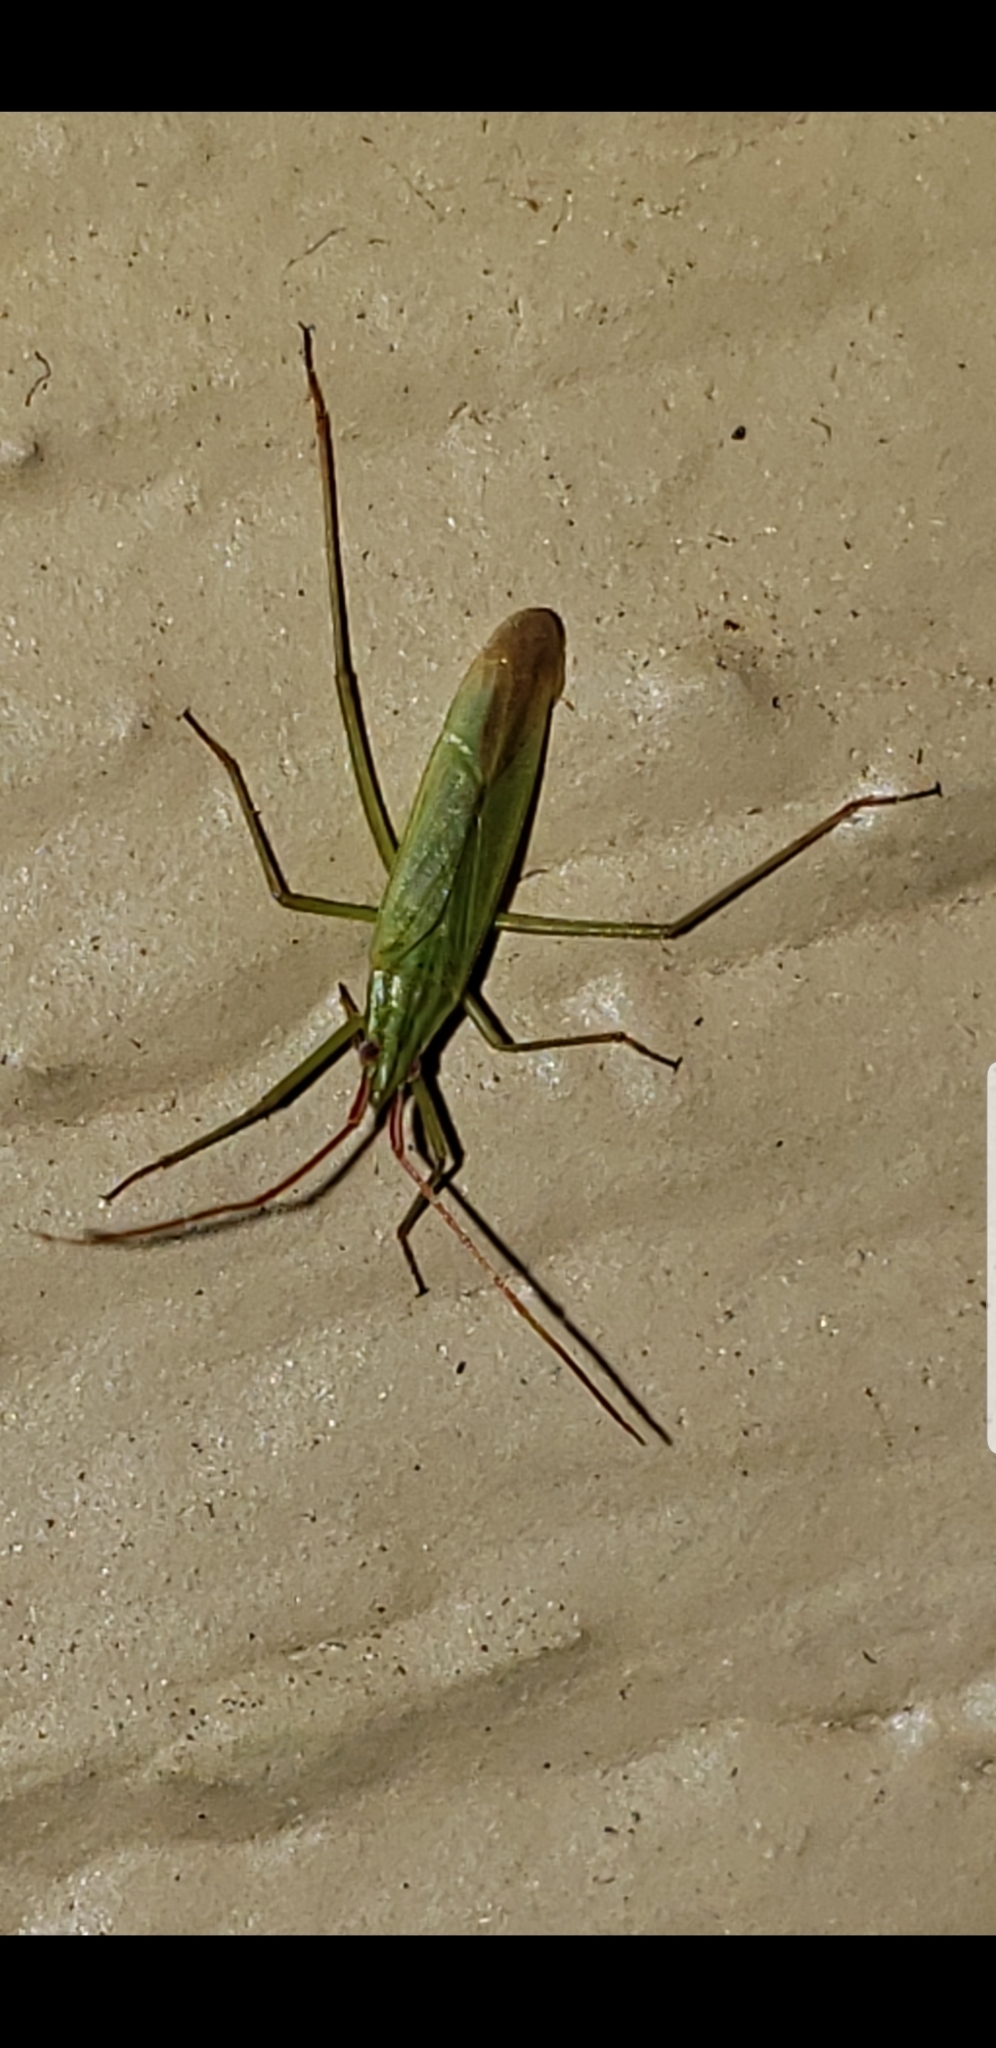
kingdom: Animalia
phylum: Arthropoda
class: Insecta
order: Hemiptera
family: Miridae
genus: Trigonotylus
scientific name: Trigonotylus caelestialium
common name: Rice leaf bug
